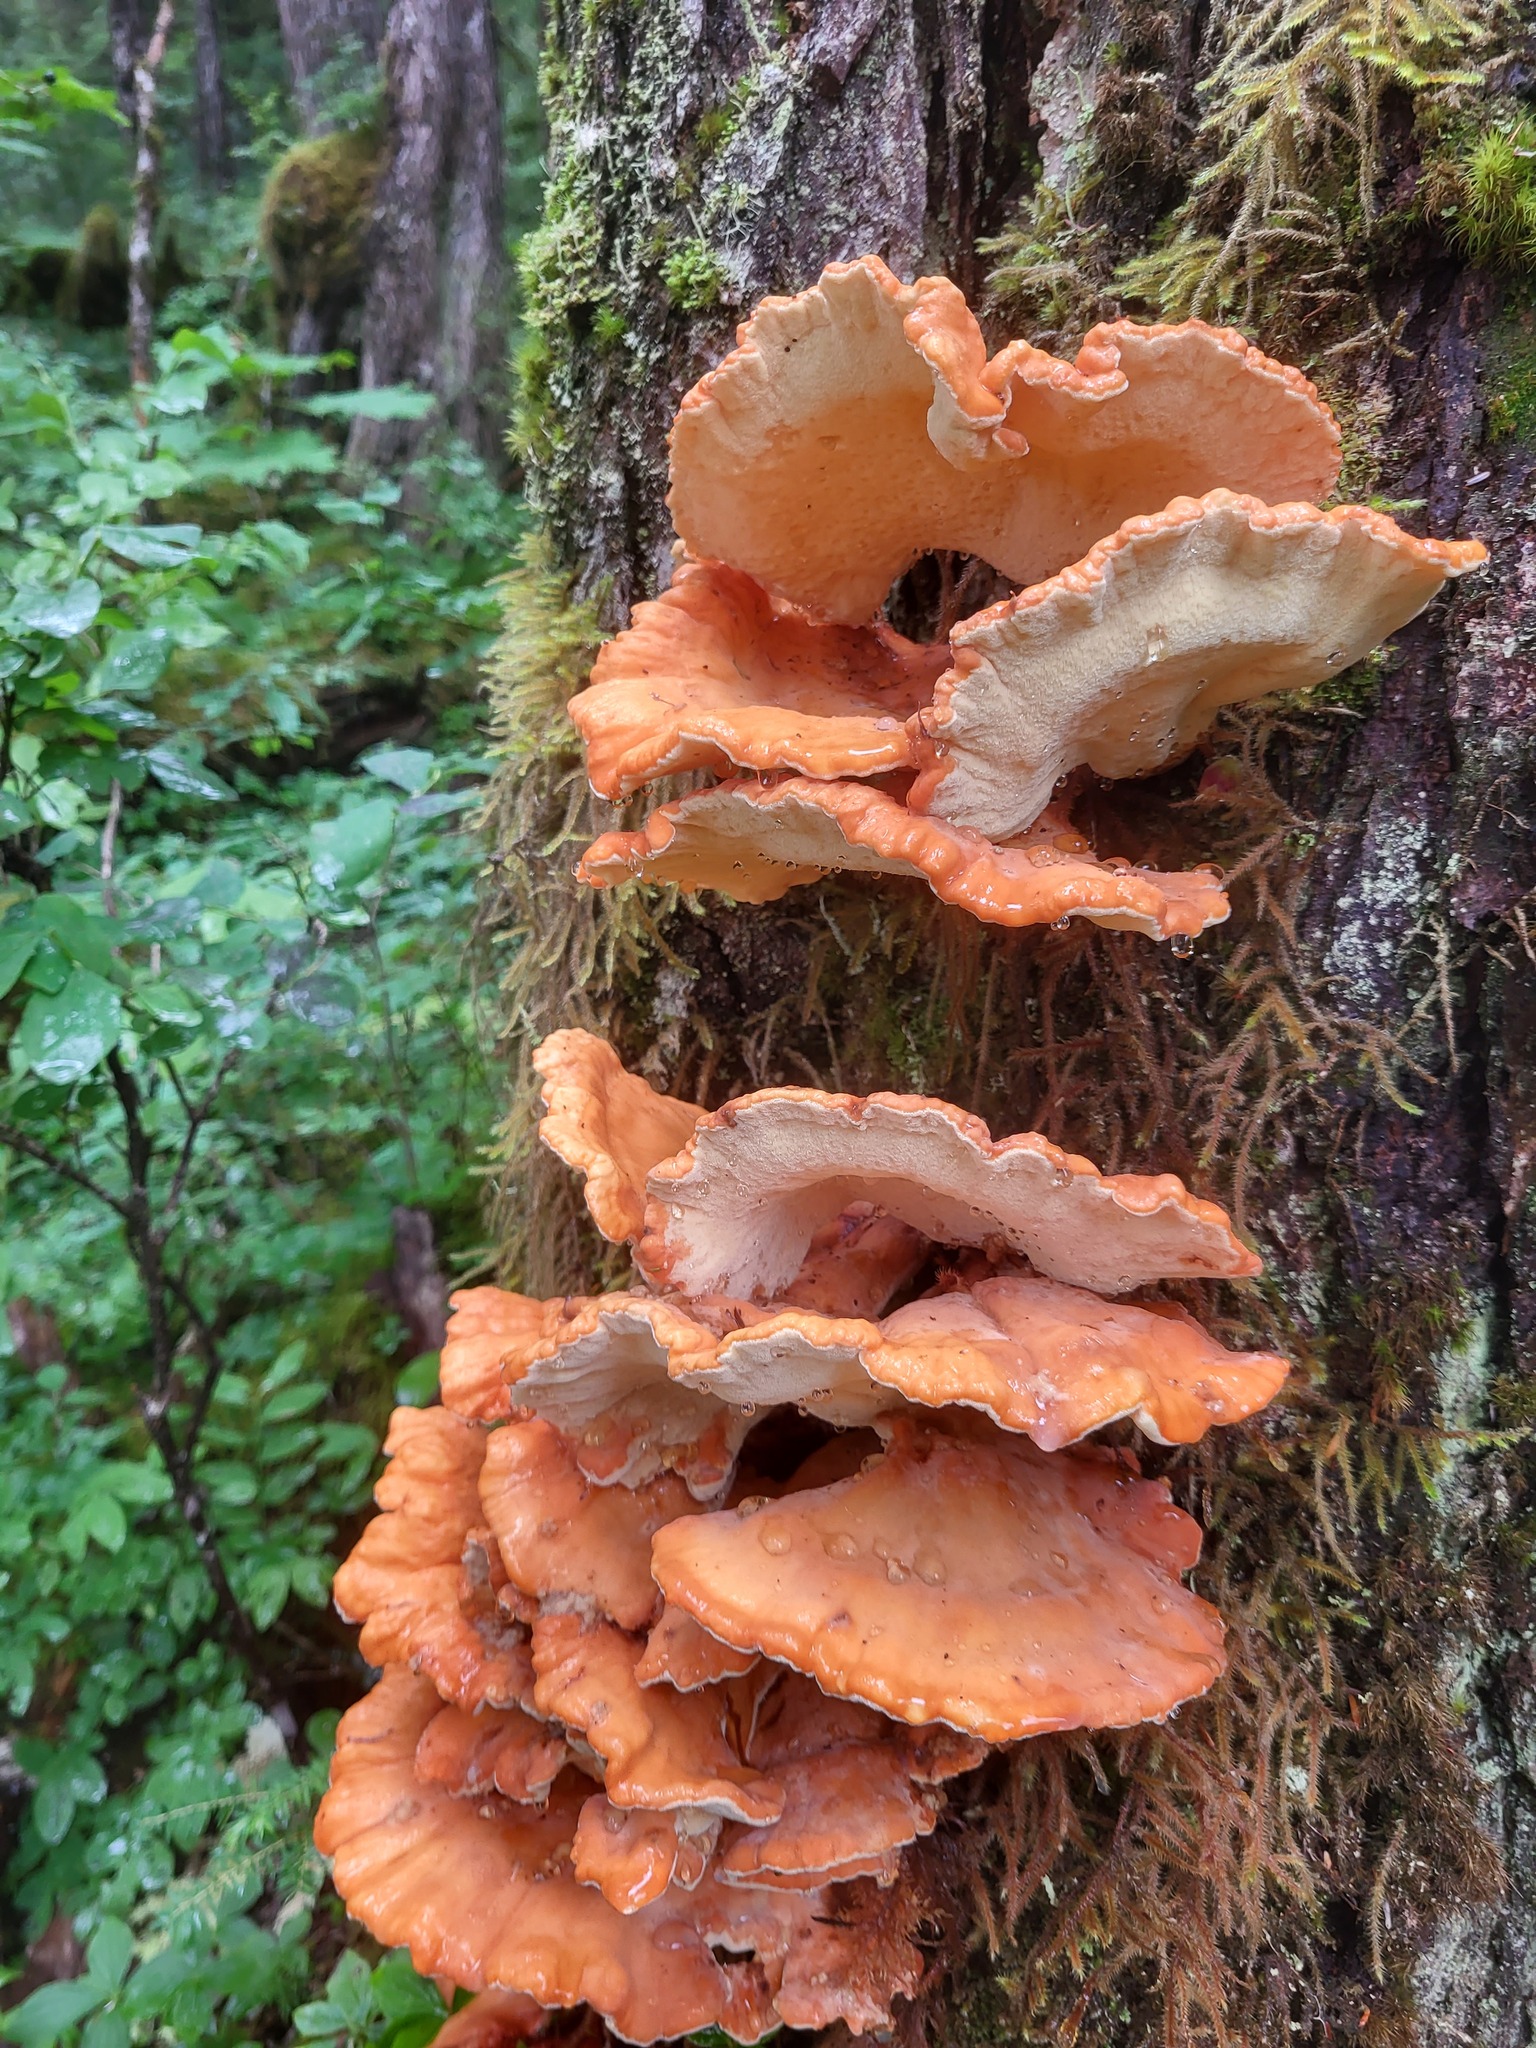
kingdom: Fungi
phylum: Basidiomycota
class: Agaricomycetes
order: Polyporales
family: Laetiporaceae
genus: Laetiporus
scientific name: Laetiporus conifericola
